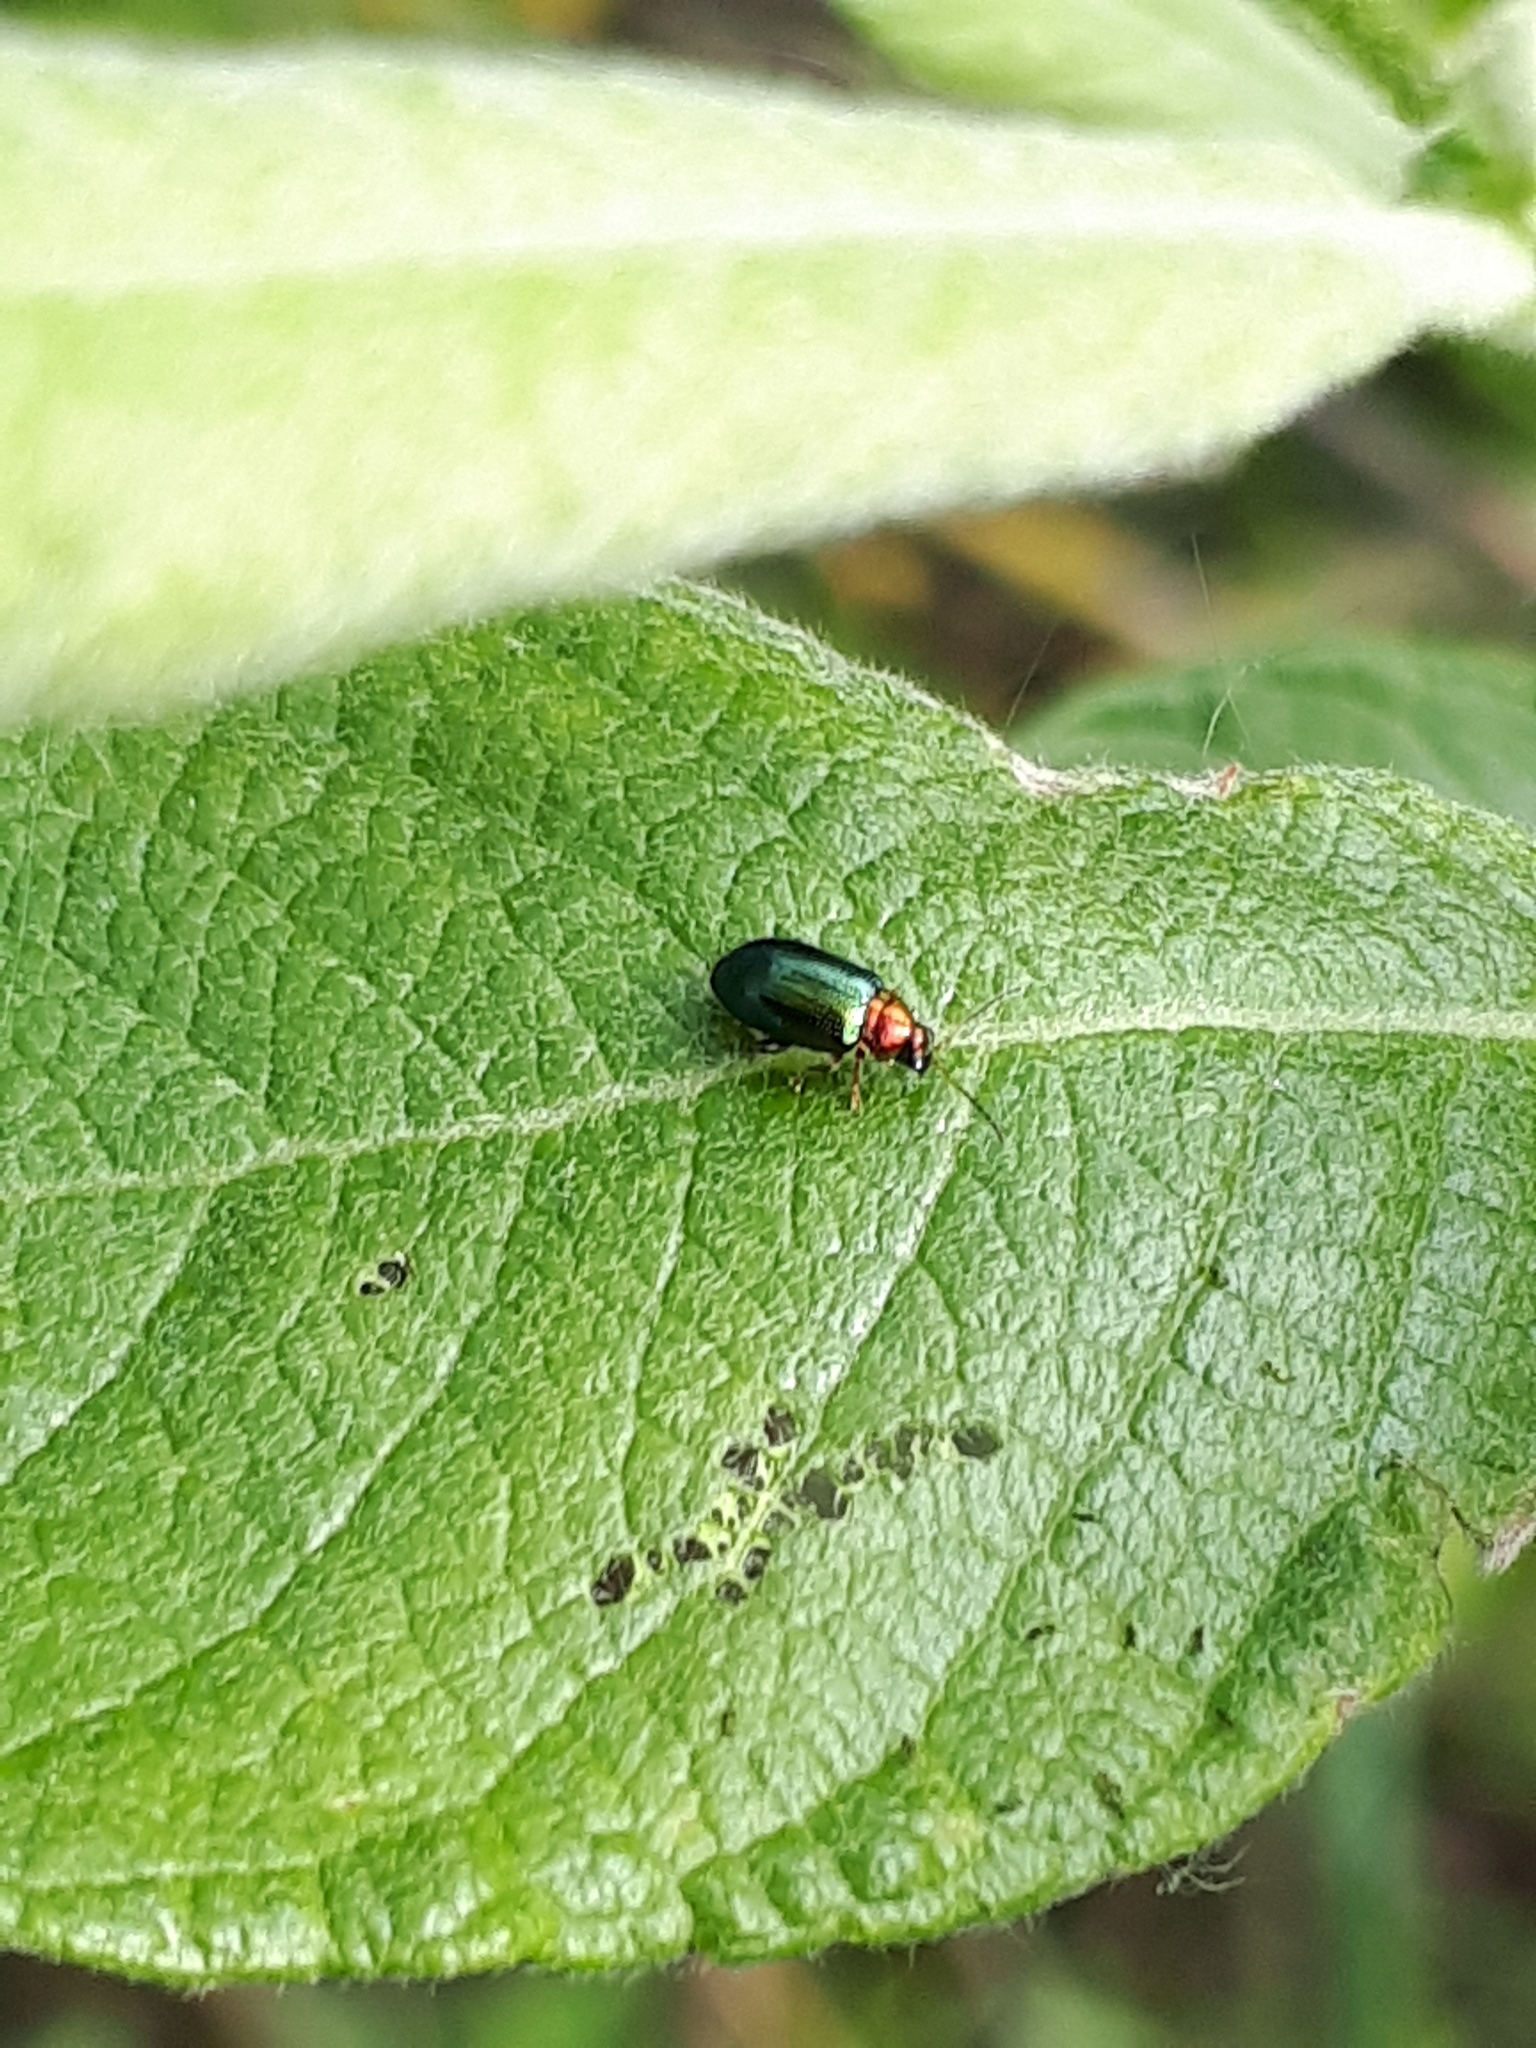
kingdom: Animalia
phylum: Arthropoda
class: Insecta
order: Coleoptera
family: Chrysomelidae
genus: Crepidodera
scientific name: Crepidodera aurata
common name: Willow flea beetle
